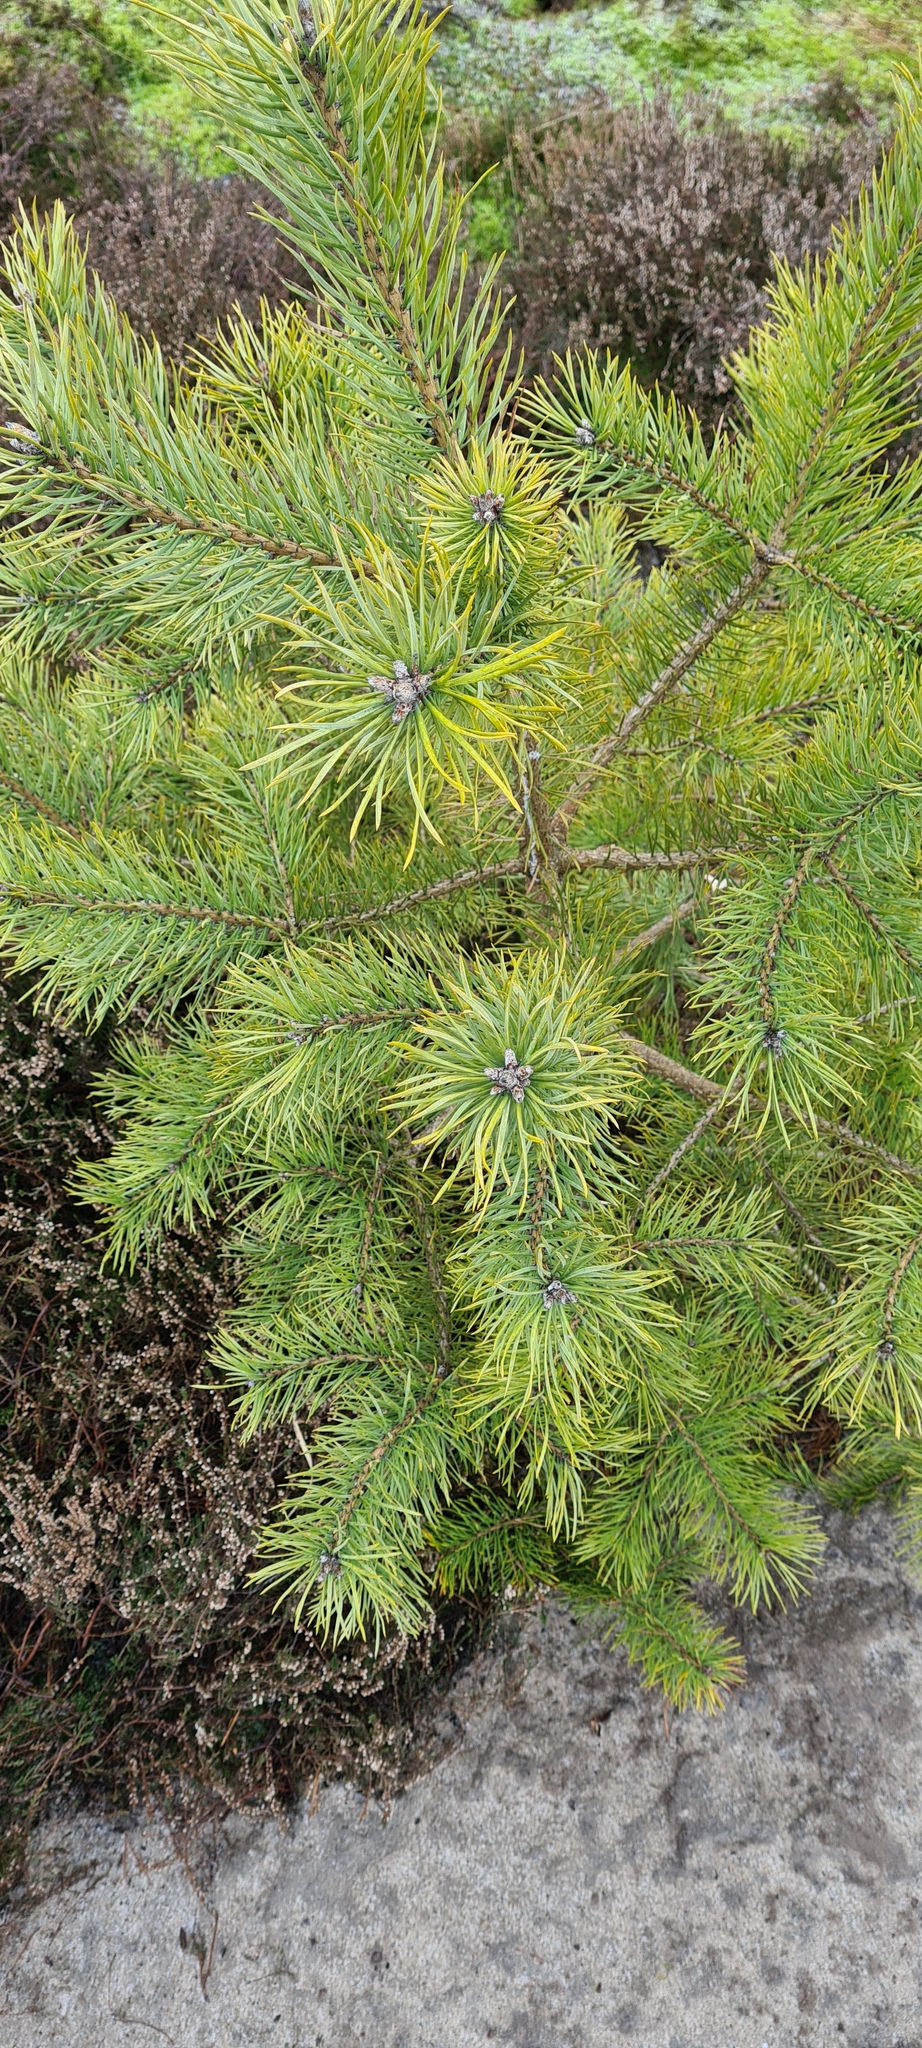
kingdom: Plantae
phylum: Tracheophyta
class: Pinopsida
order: Pinales
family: Pinaceae
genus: Pinus
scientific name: Pinus sylvestris
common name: Scots pine
